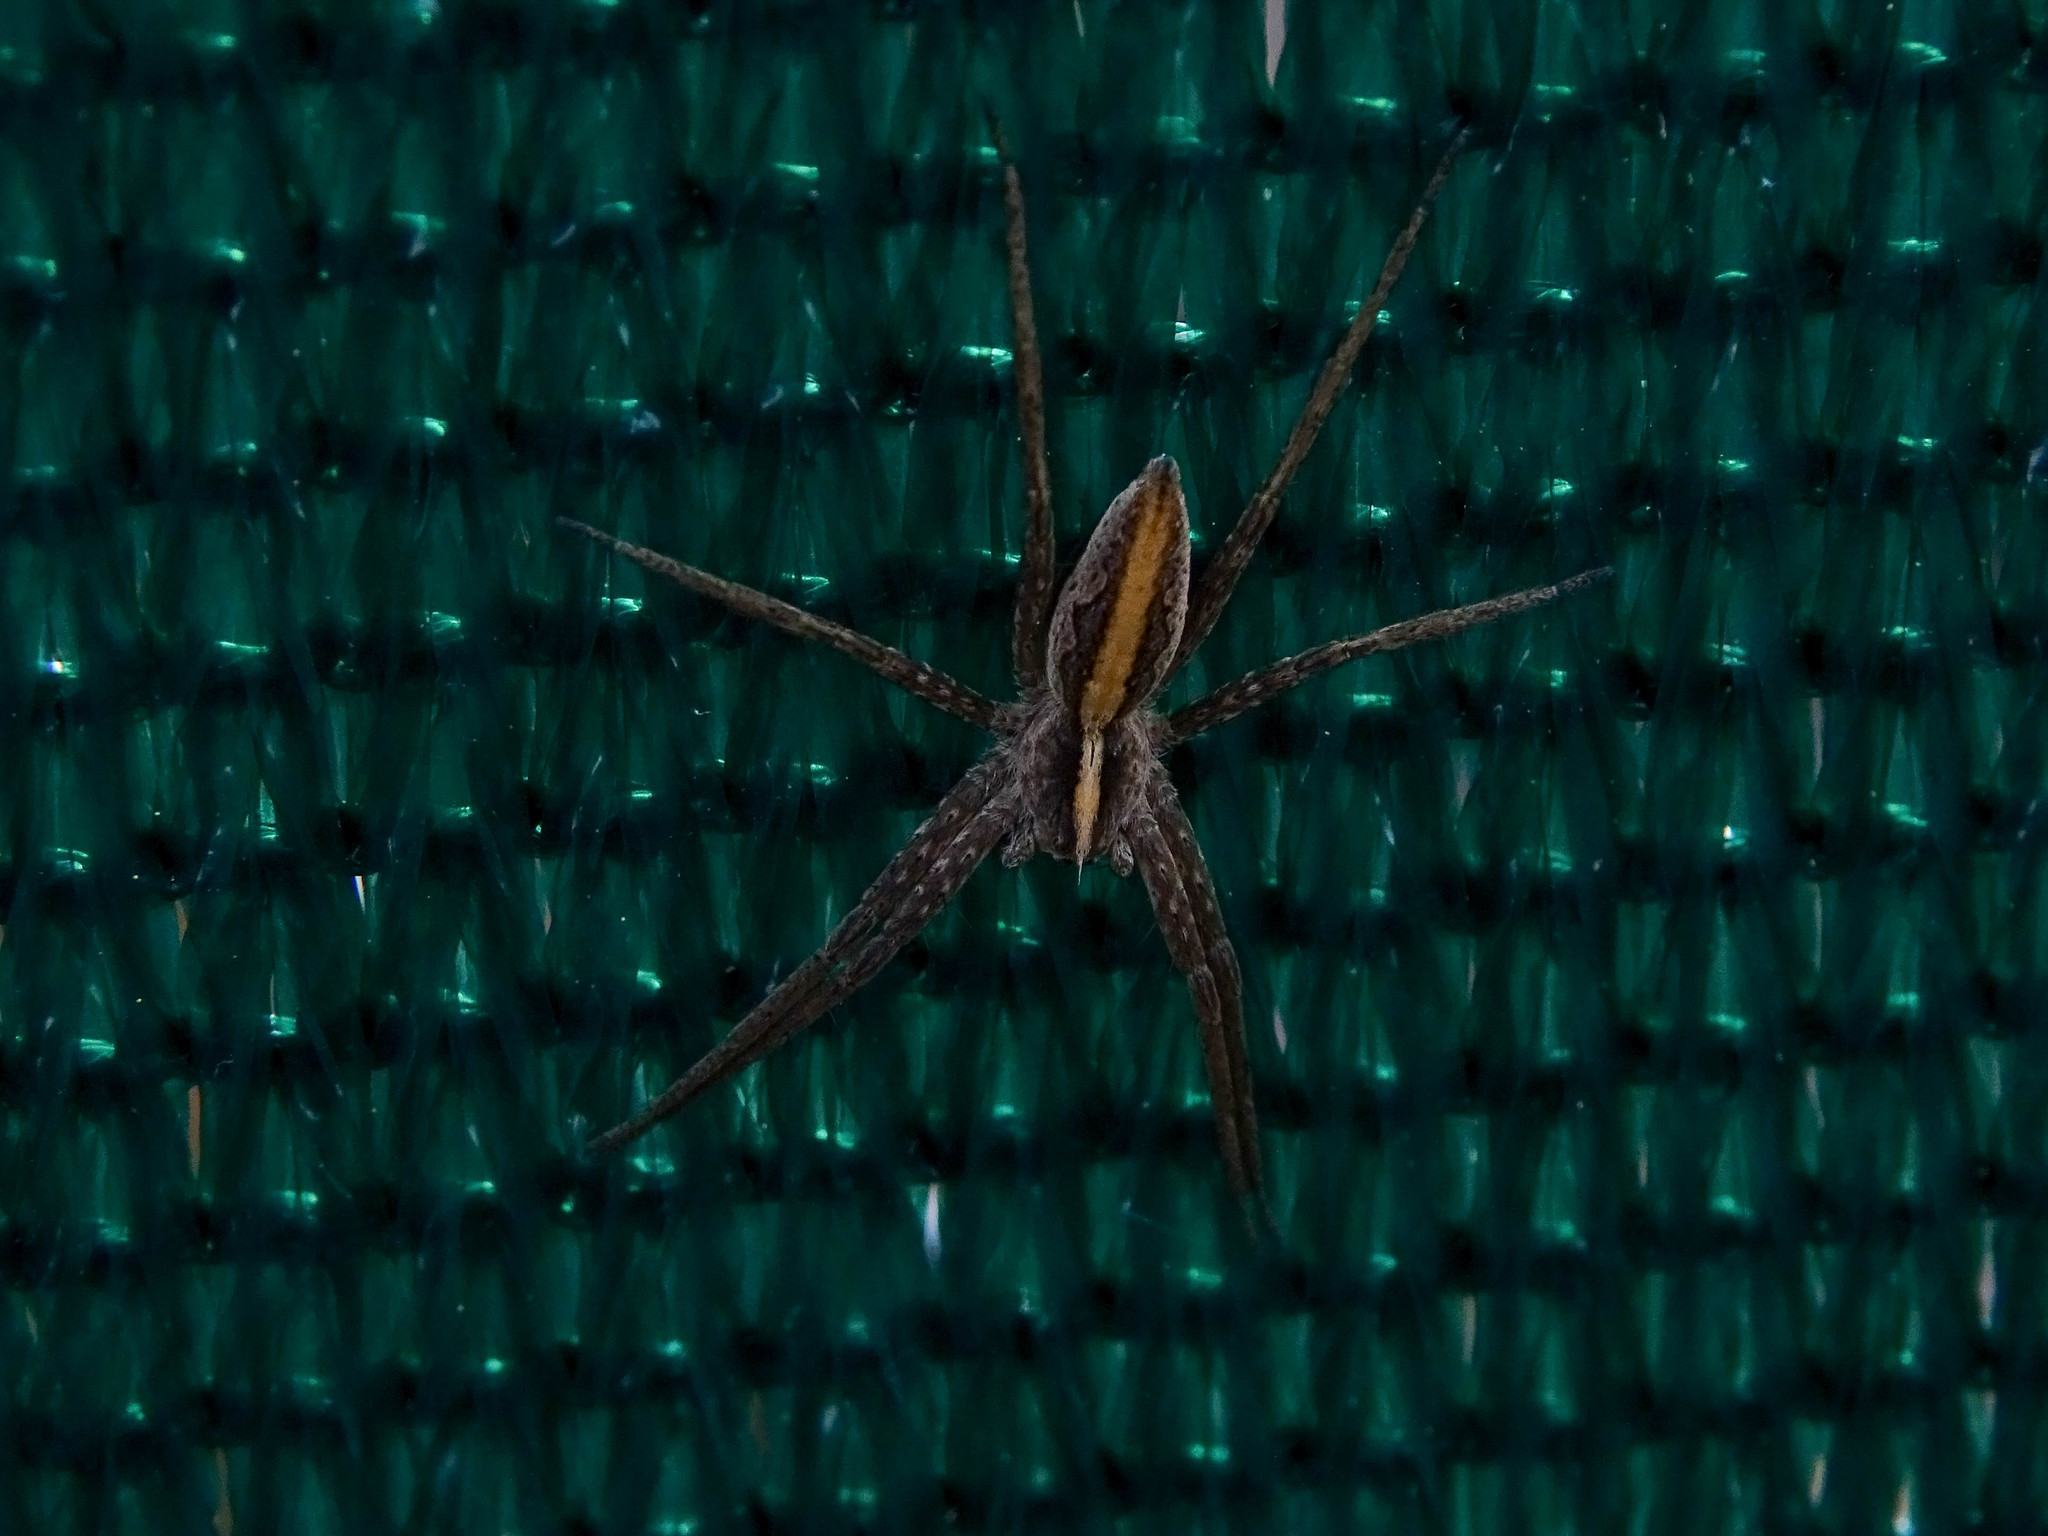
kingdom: Animalia
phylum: Arthropoda
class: Arachnida
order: Araneae
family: Pisauridae
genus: Pisaura
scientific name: Pisaura mirabilis
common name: Tent spider
